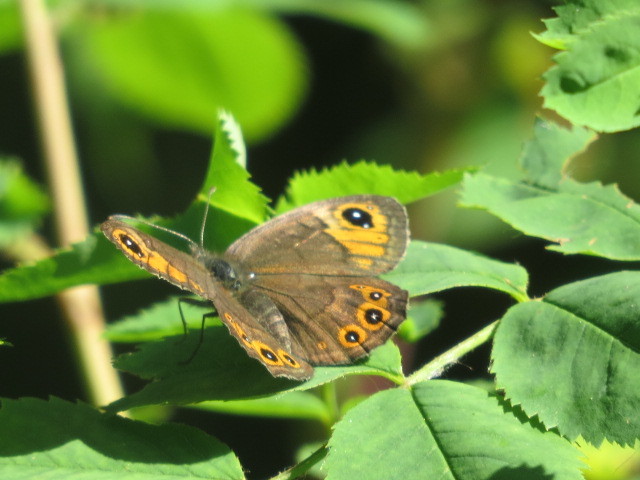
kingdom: Animalia
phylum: Arthropoda
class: Insecta
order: Lepidoptera
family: Nymphalidae
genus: Pararge
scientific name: Pararge petropolitana
